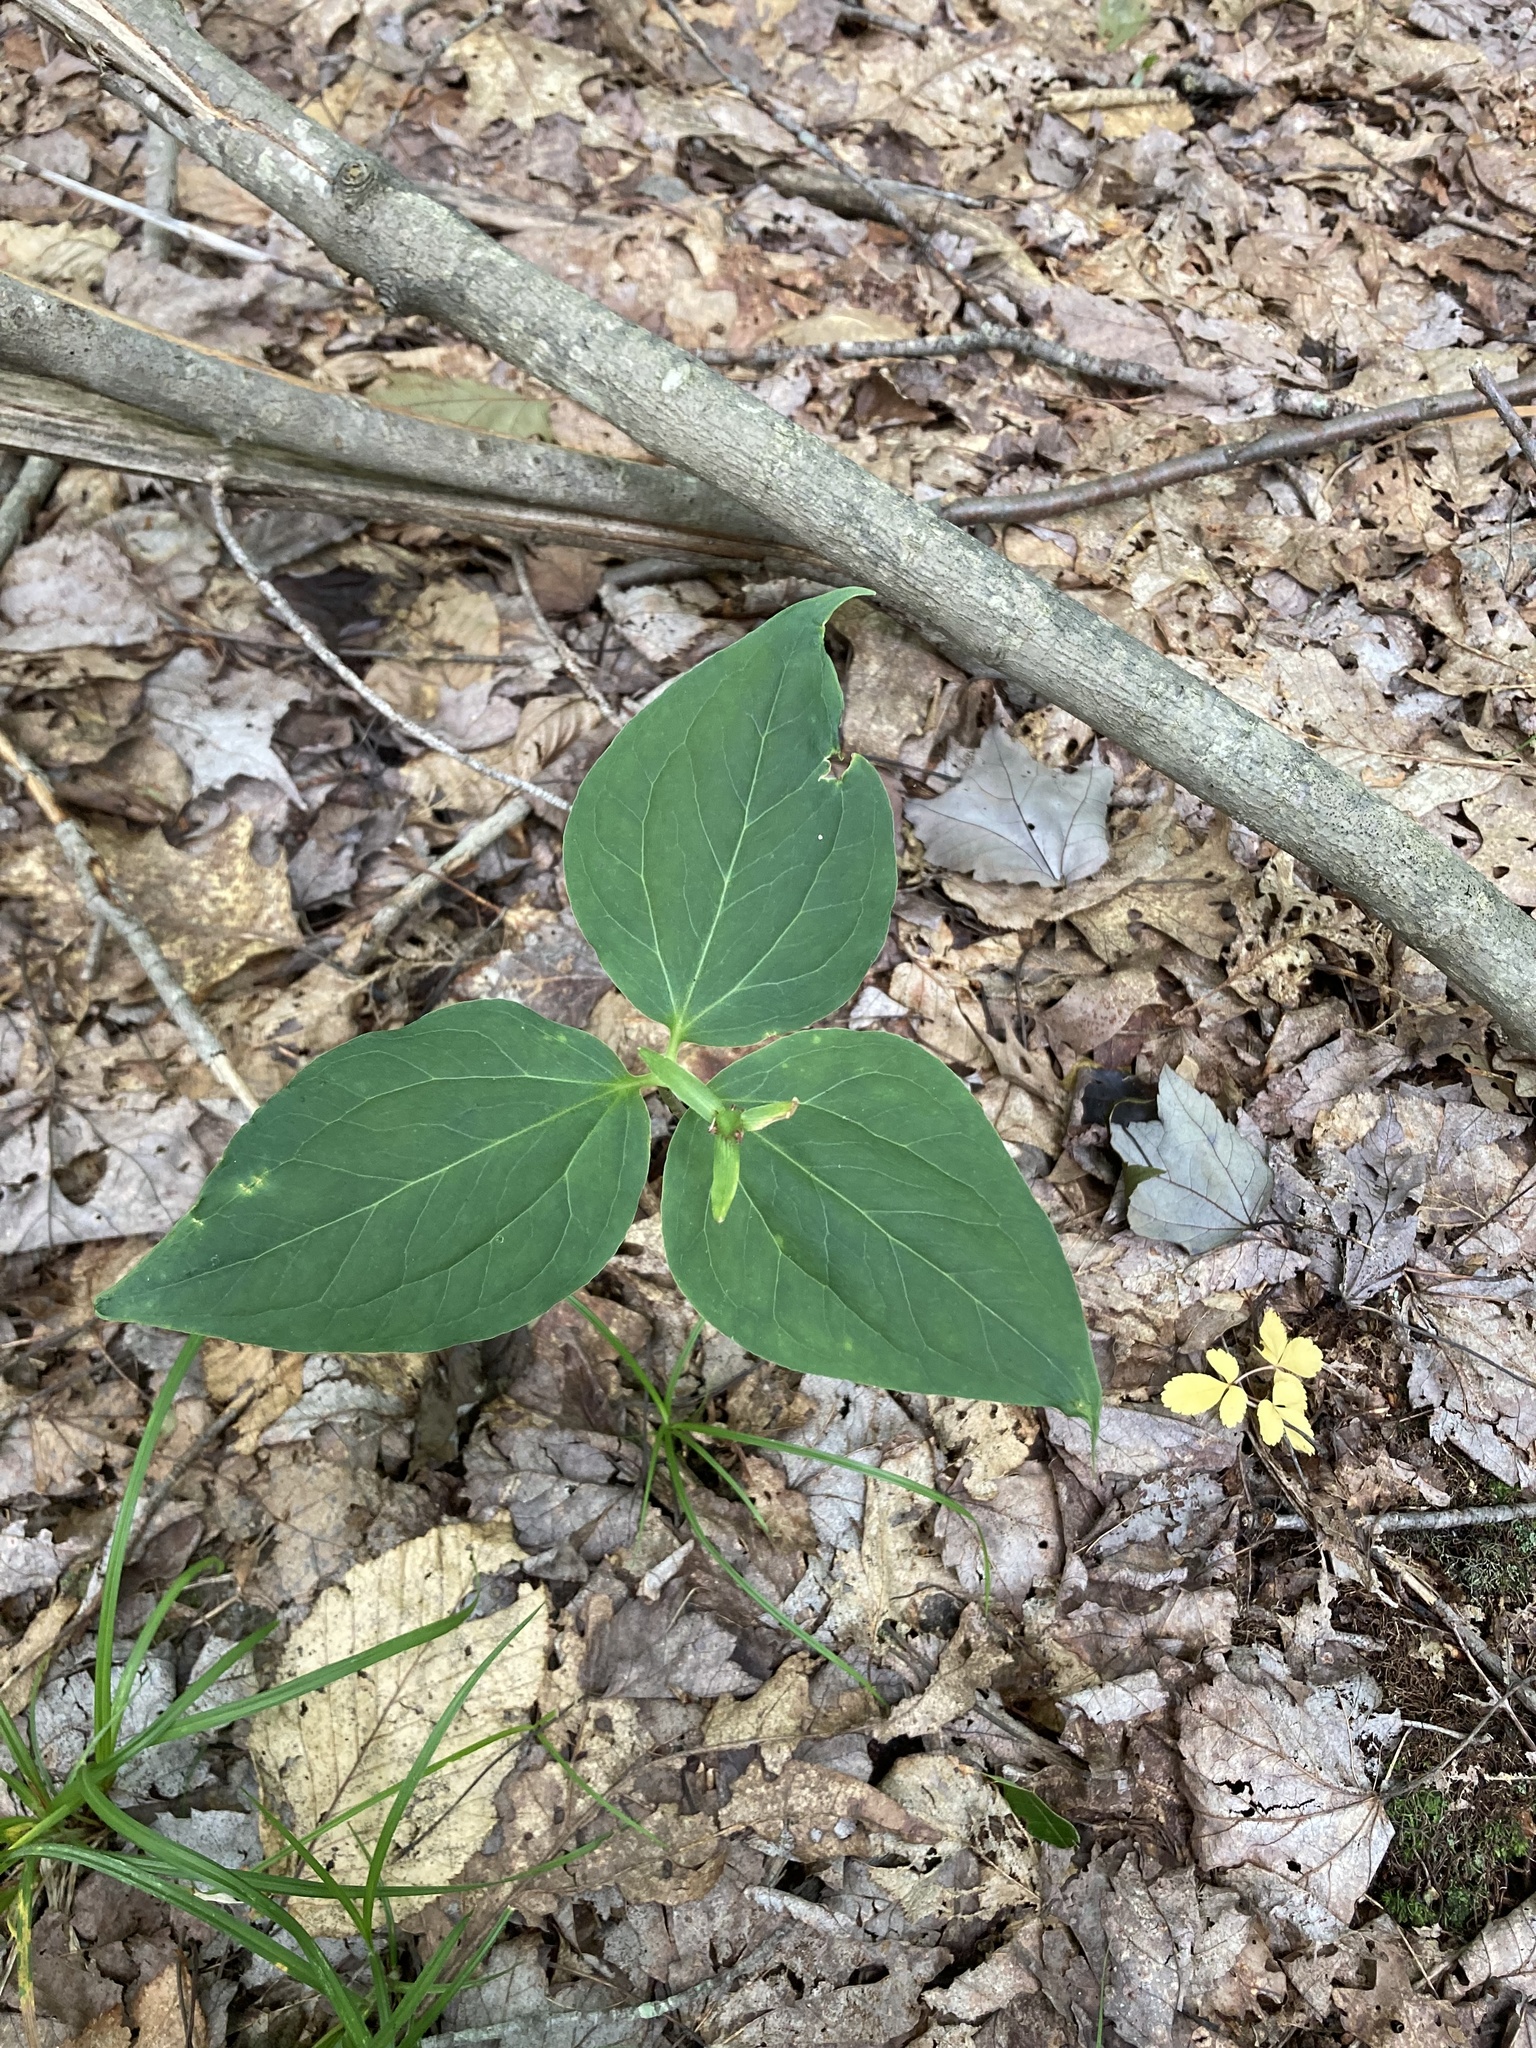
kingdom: Plantae
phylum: Tracheophyta
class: Liliopsida
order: Liliales
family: Melanthiaceae
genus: Trillium
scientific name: Trillium undulatum
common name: Paint trillium
